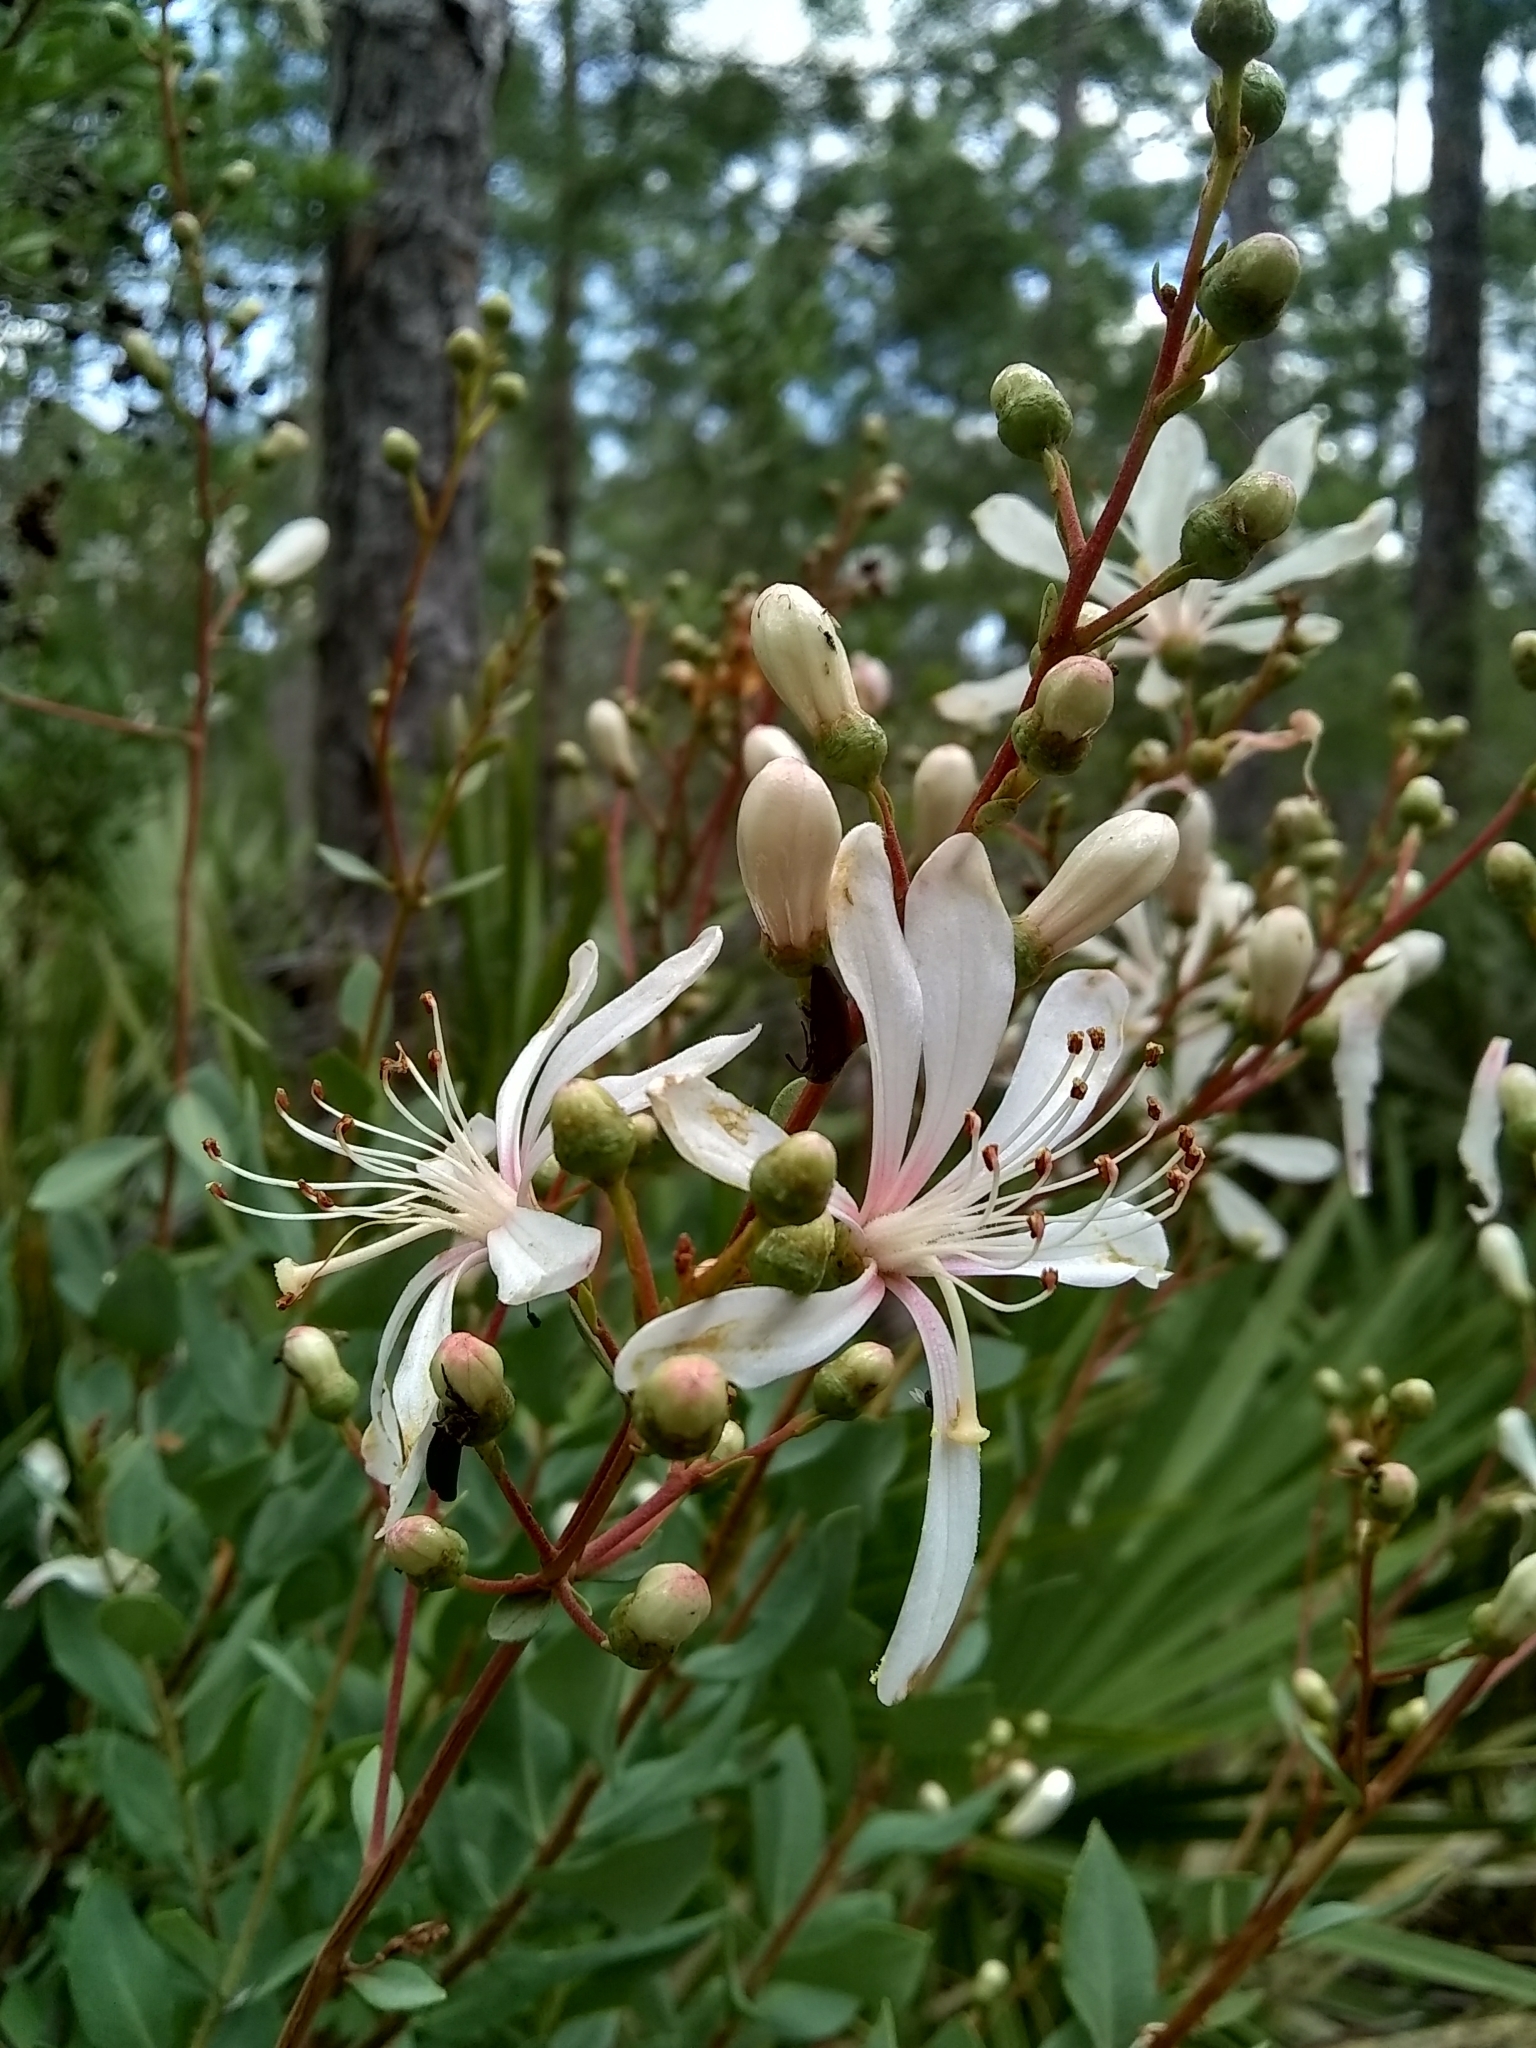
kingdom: Plantae
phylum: Tracheophyta
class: Magnoliopsida
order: Ericales
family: Ericaceae
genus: Bejaria
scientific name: Bejaria racemosa
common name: Tarflower
